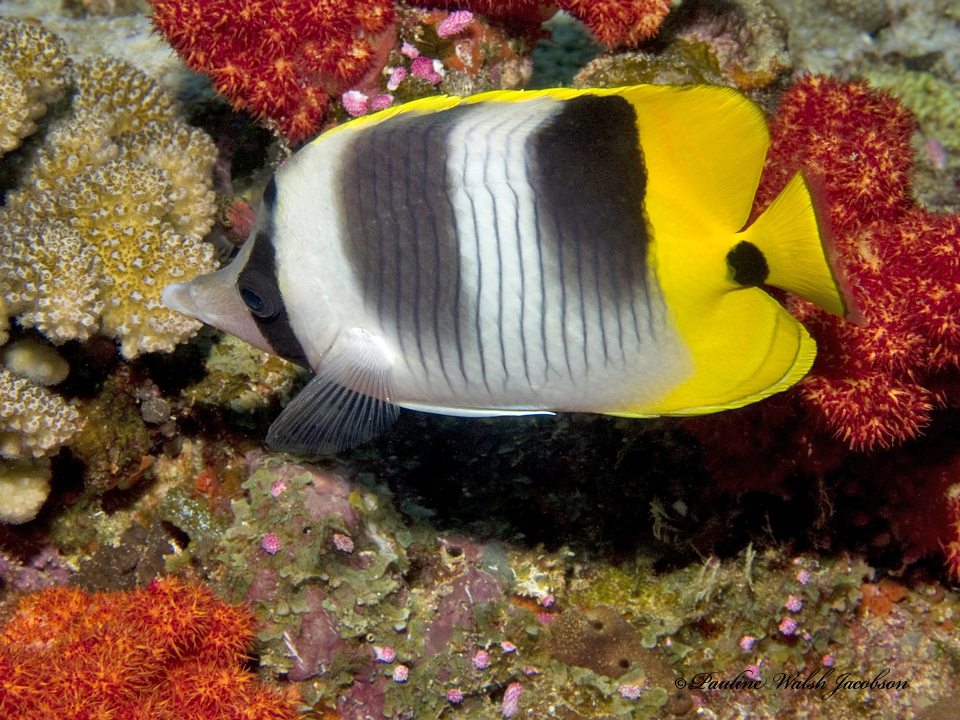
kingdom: Animalia
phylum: Chordata
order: Perciformes
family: Chaetodontidae
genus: Chaetodon
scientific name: Chaetodon ulietensis
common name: Pacific double-saddle butterflyfish
